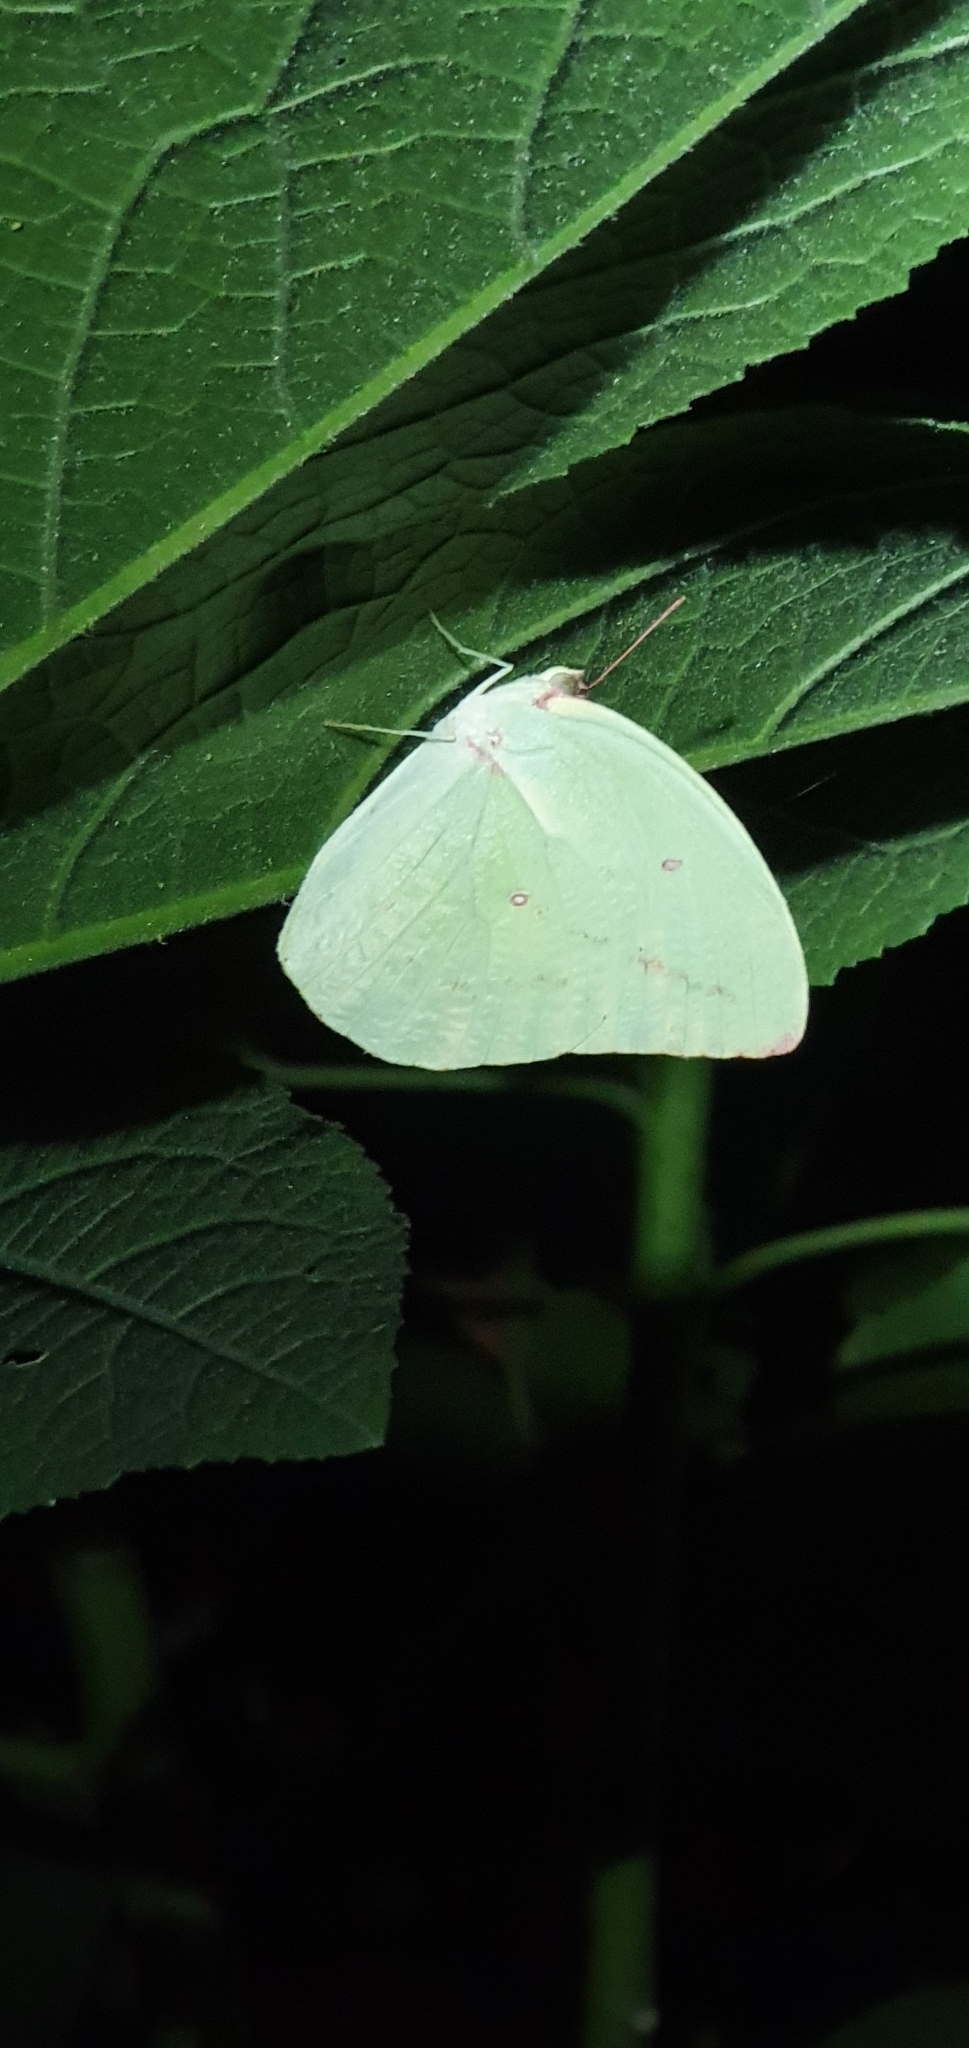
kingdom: Animalia
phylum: Arthropoda
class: Insecta
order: Lepidoptera
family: Pieridae
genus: Catopsilia
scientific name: Catopsilia pomona
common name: Common emigrant
